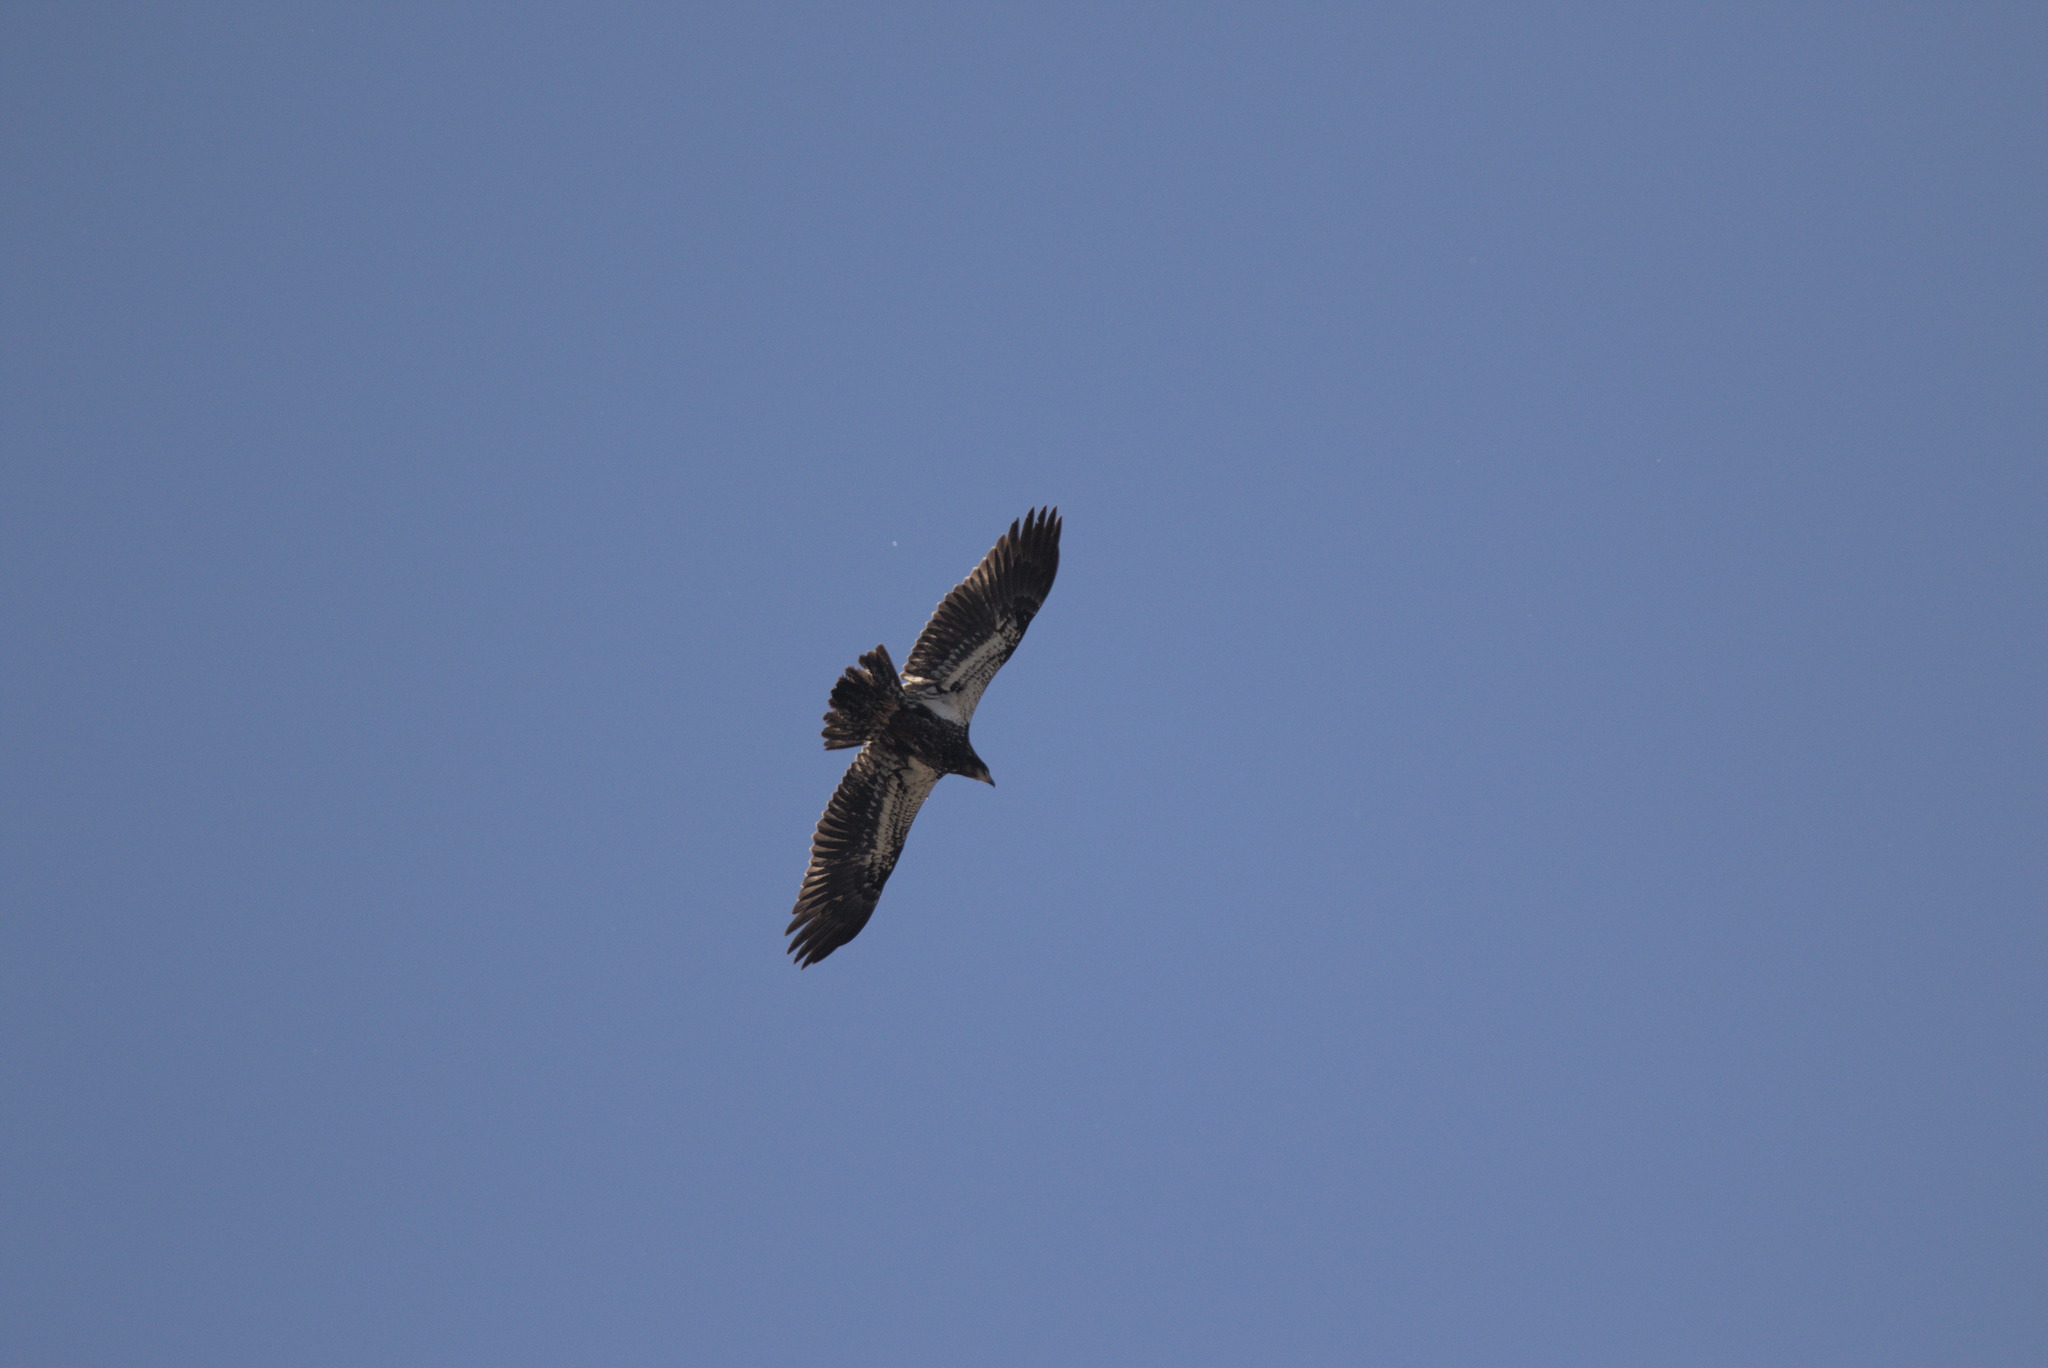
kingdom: Animalia
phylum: Chordata
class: Aves
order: Accipitriformes
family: Accipitridae
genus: Haliaeetus
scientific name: Haliaeetus leucocephalus
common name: Bald eagle
